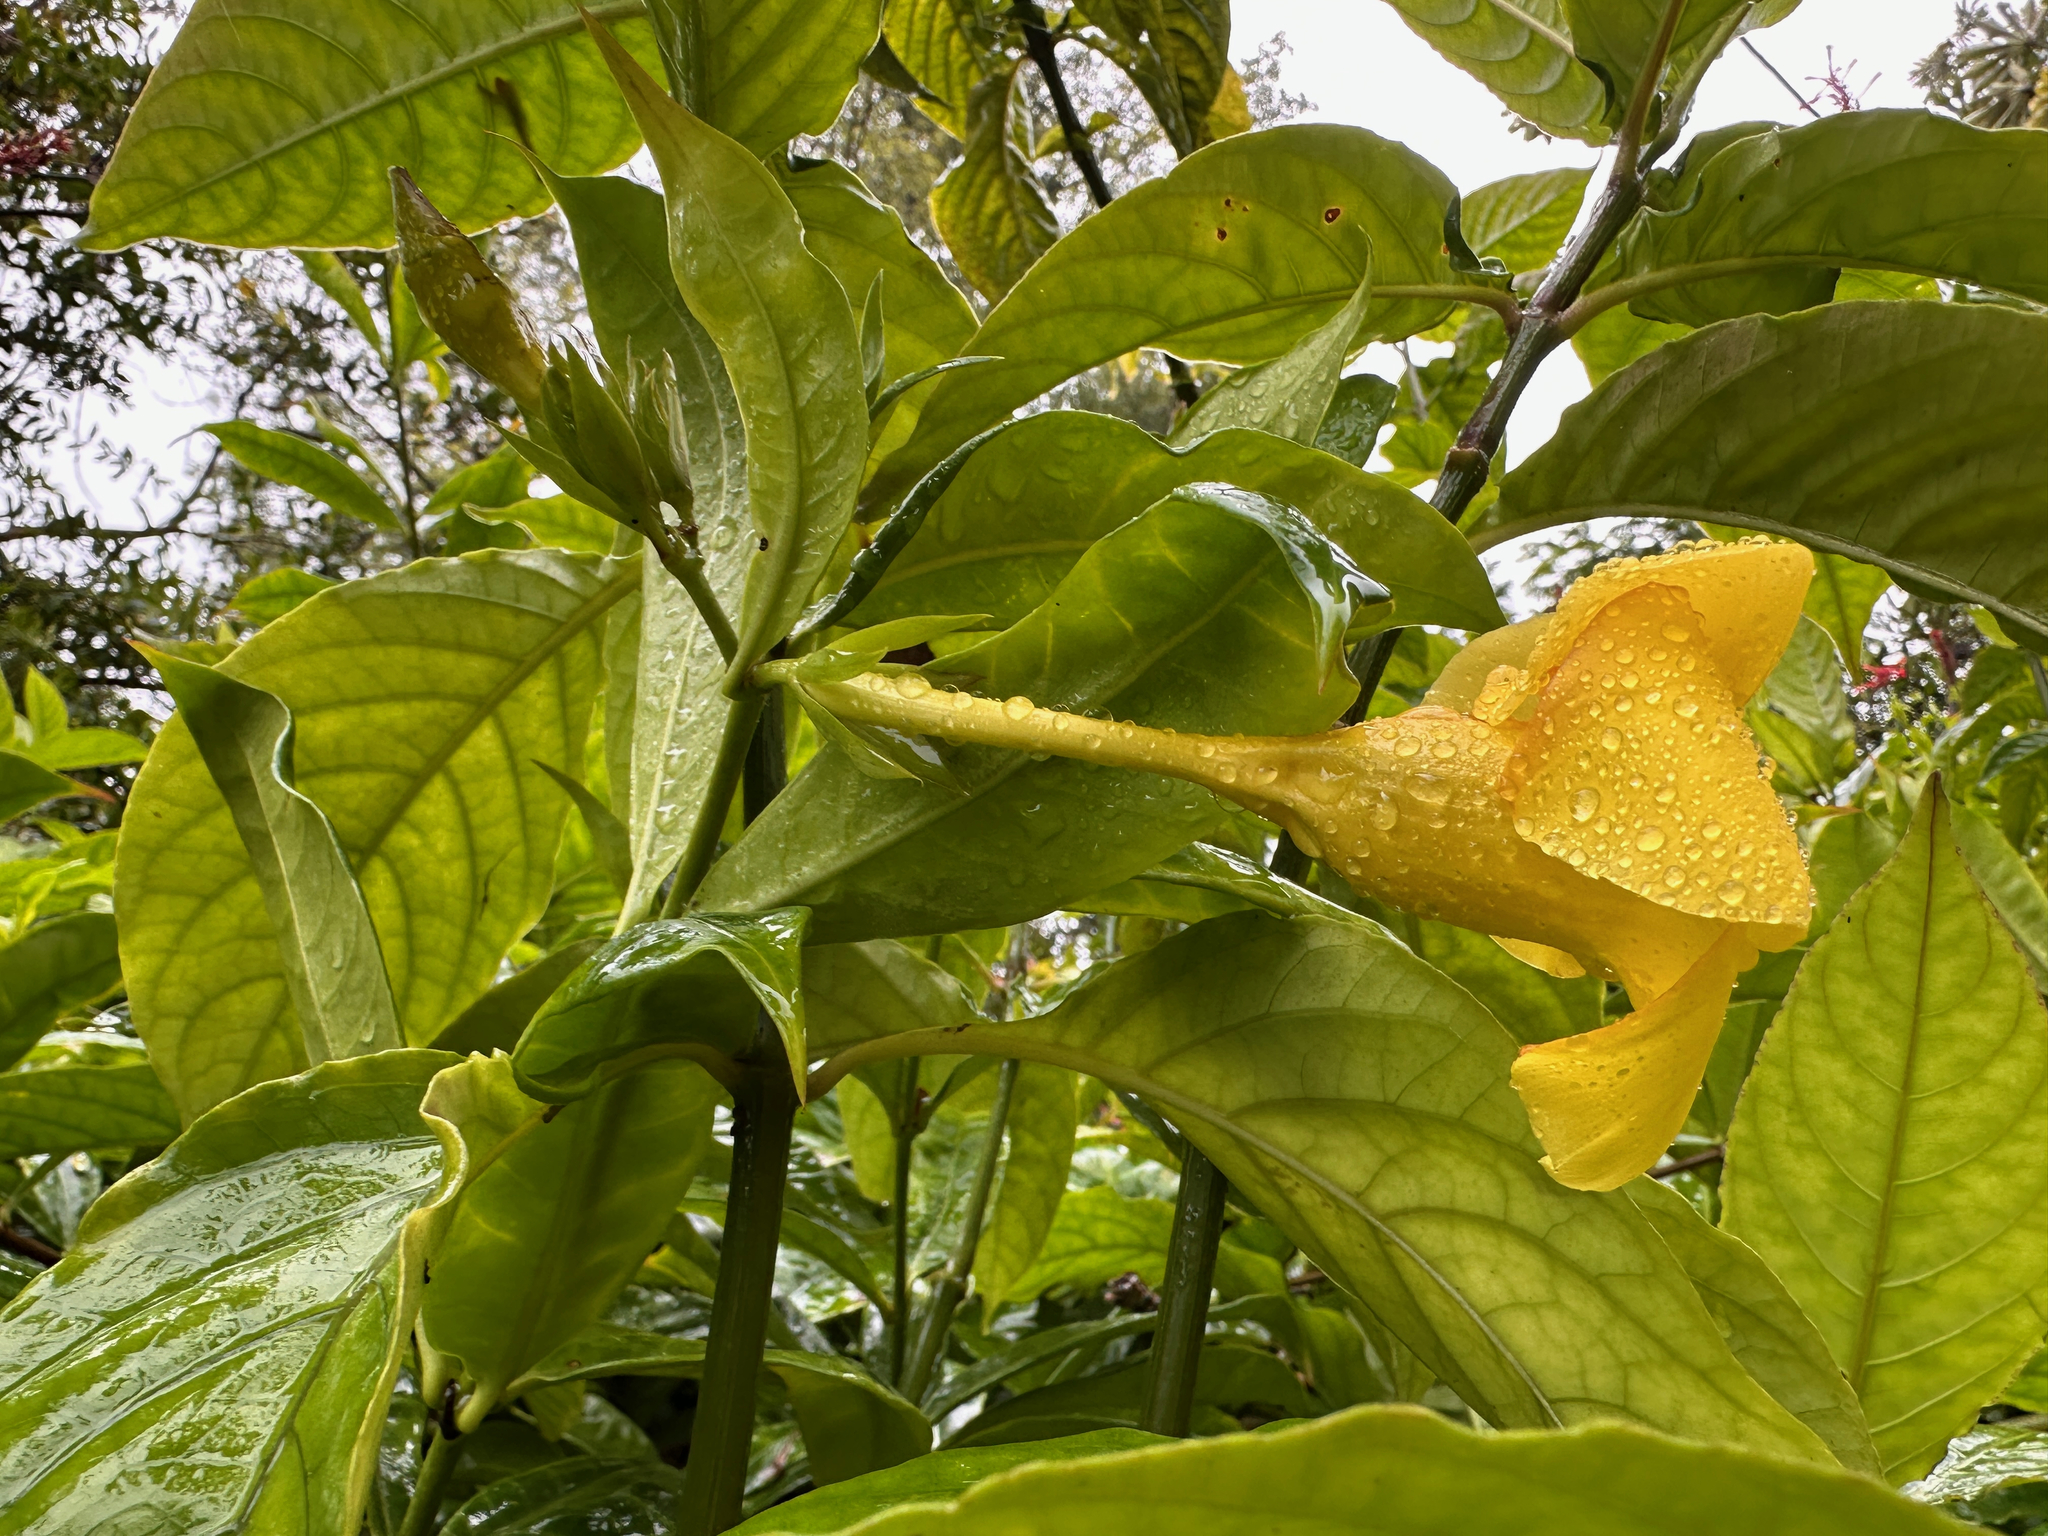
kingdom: Plantae
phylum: Tracheophyta
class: Magnoliopsida
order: Gentianales
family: Apocynaceae
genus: Allamanda
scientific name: Allamanda cathartica
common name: Golden trumpet
